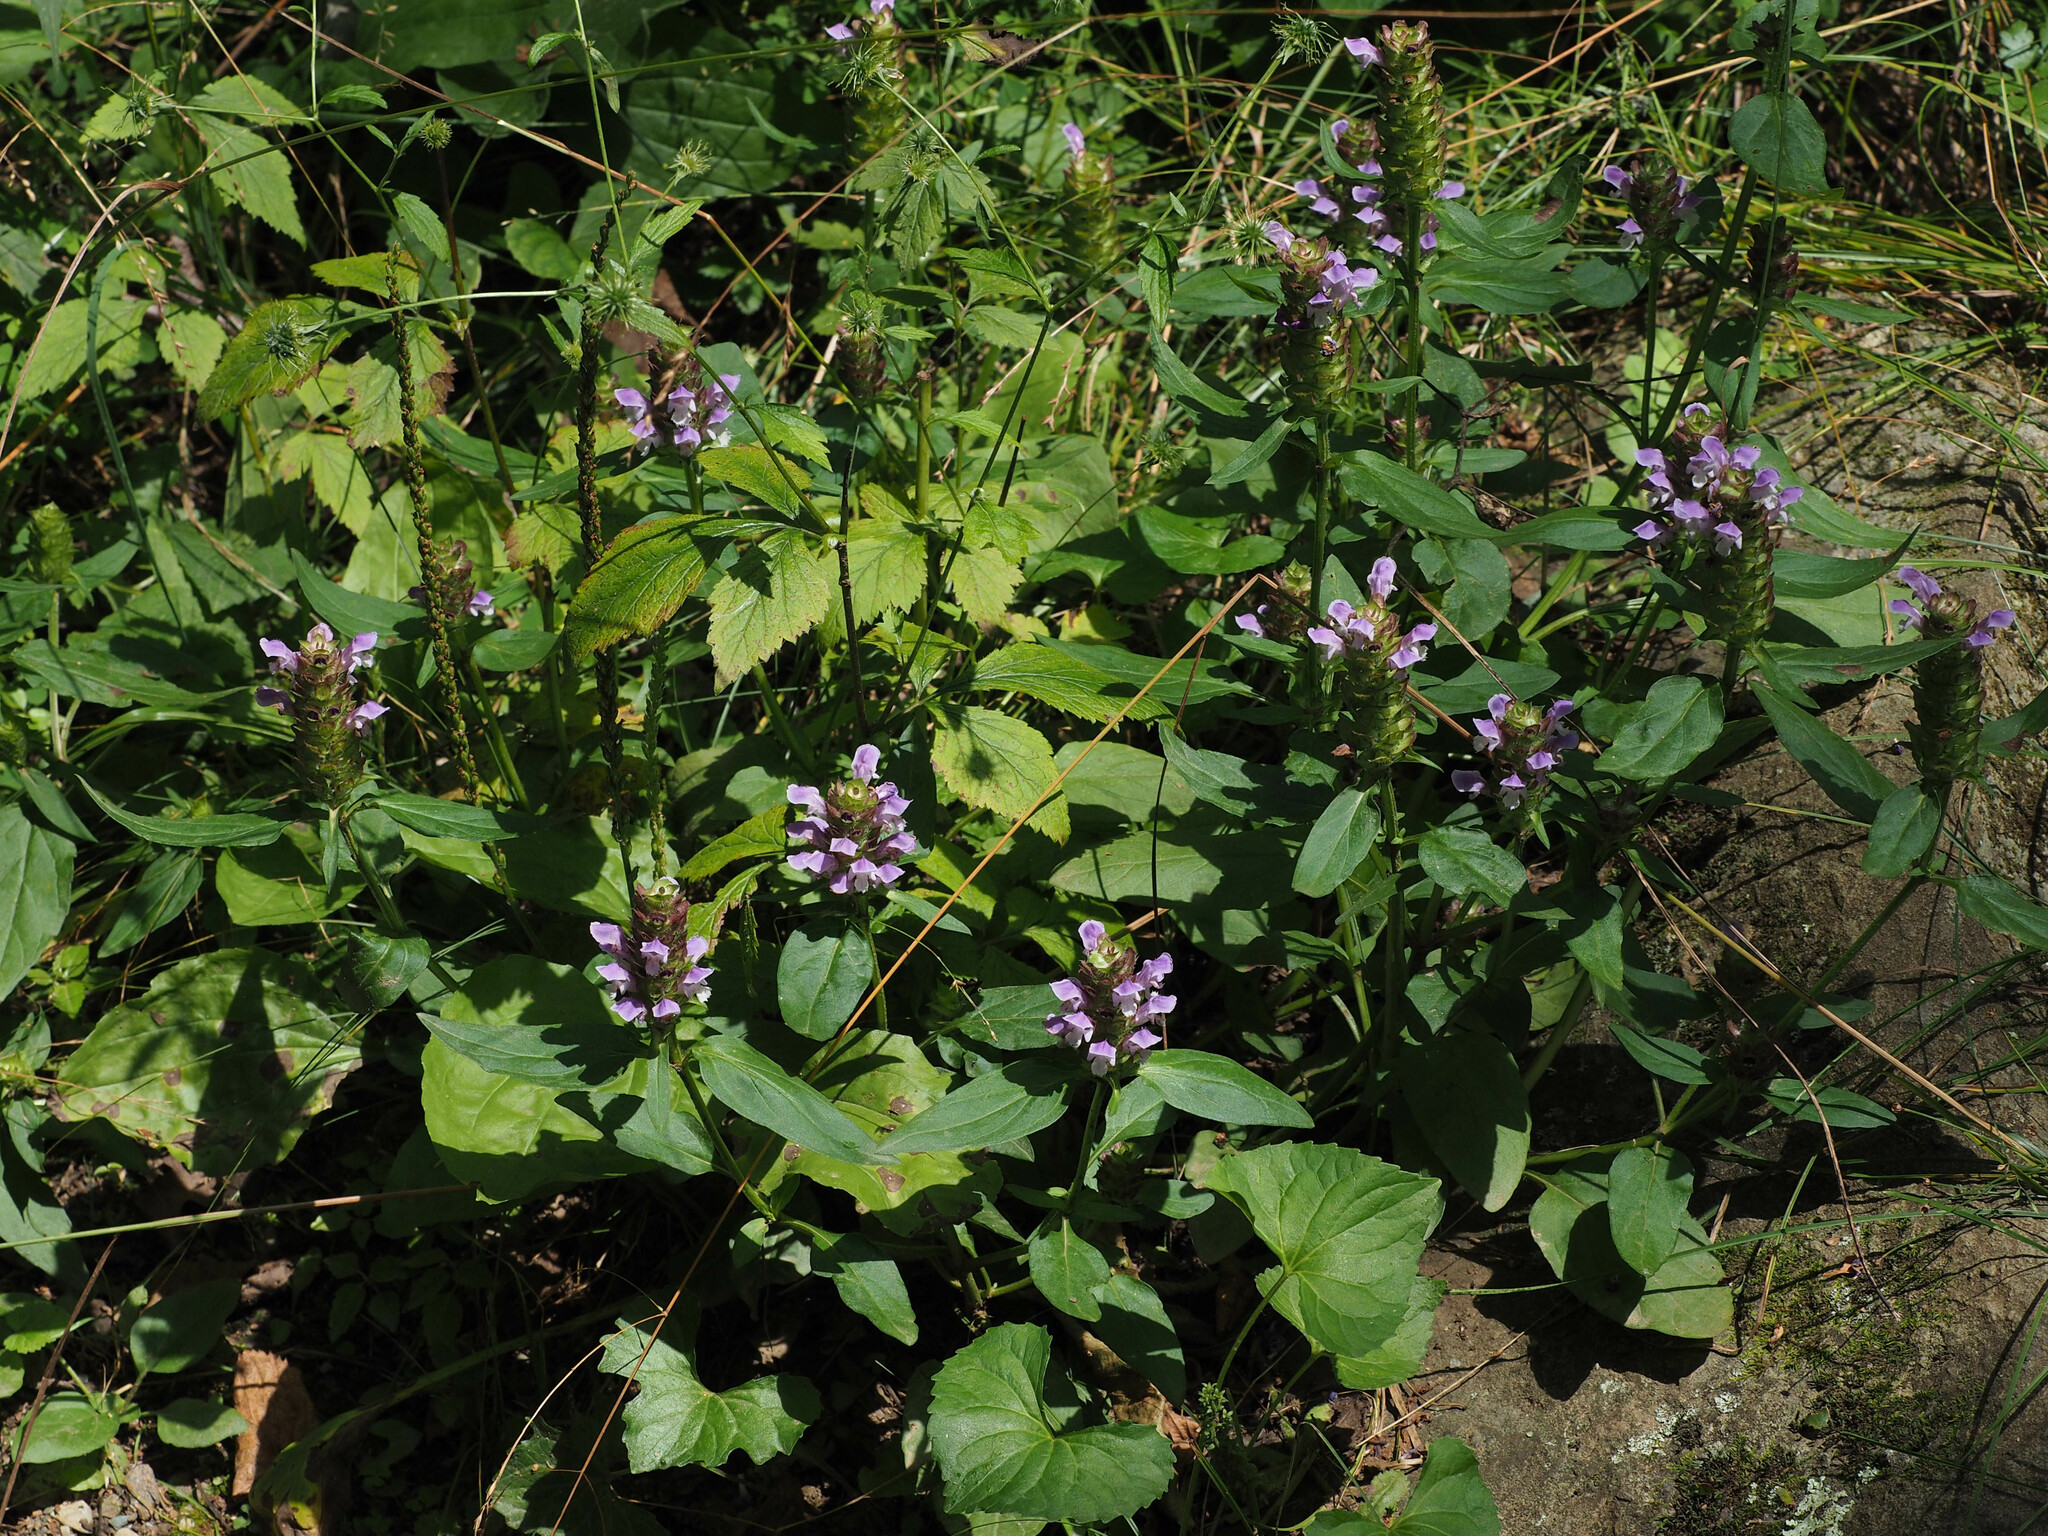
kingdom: Plantae
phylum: Tracheophyta
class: Magnoliopsida
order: Lamiales
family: Lamiaceae
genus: Prunella
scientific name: Prunella vulgaris
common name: Heal-all
